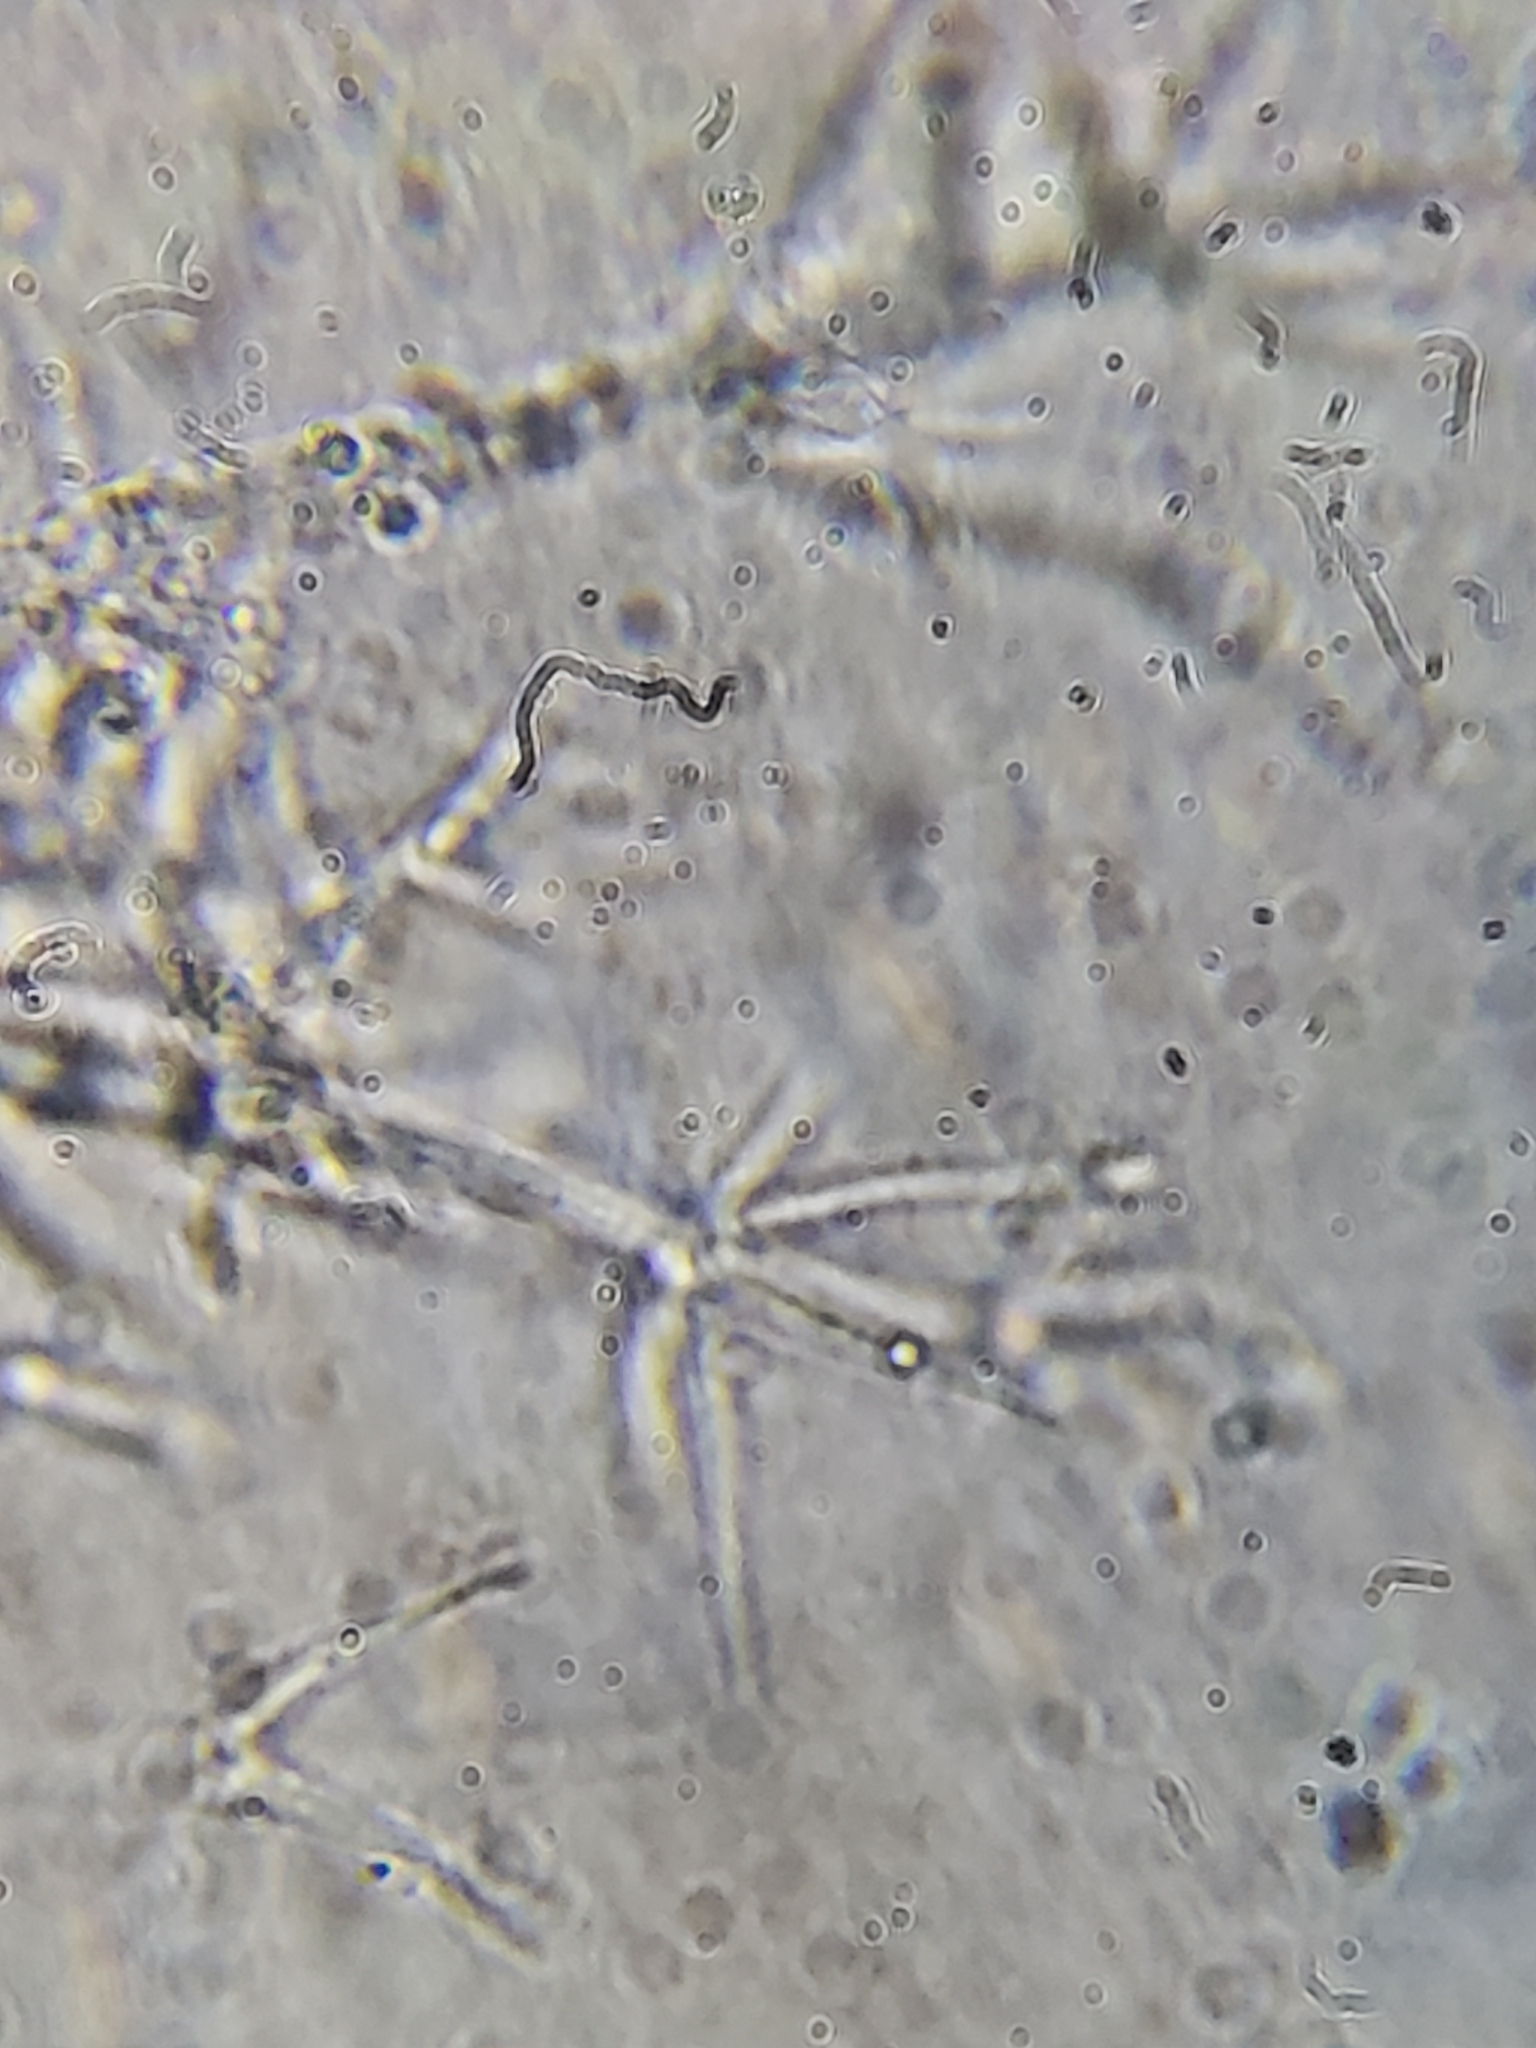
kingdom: Fungi
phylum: Ascomycota
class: Sordariomycetes
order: Hypocreales
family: Hypocreaceae
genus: Hypomyces
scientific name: Hypomyces ochraceus
